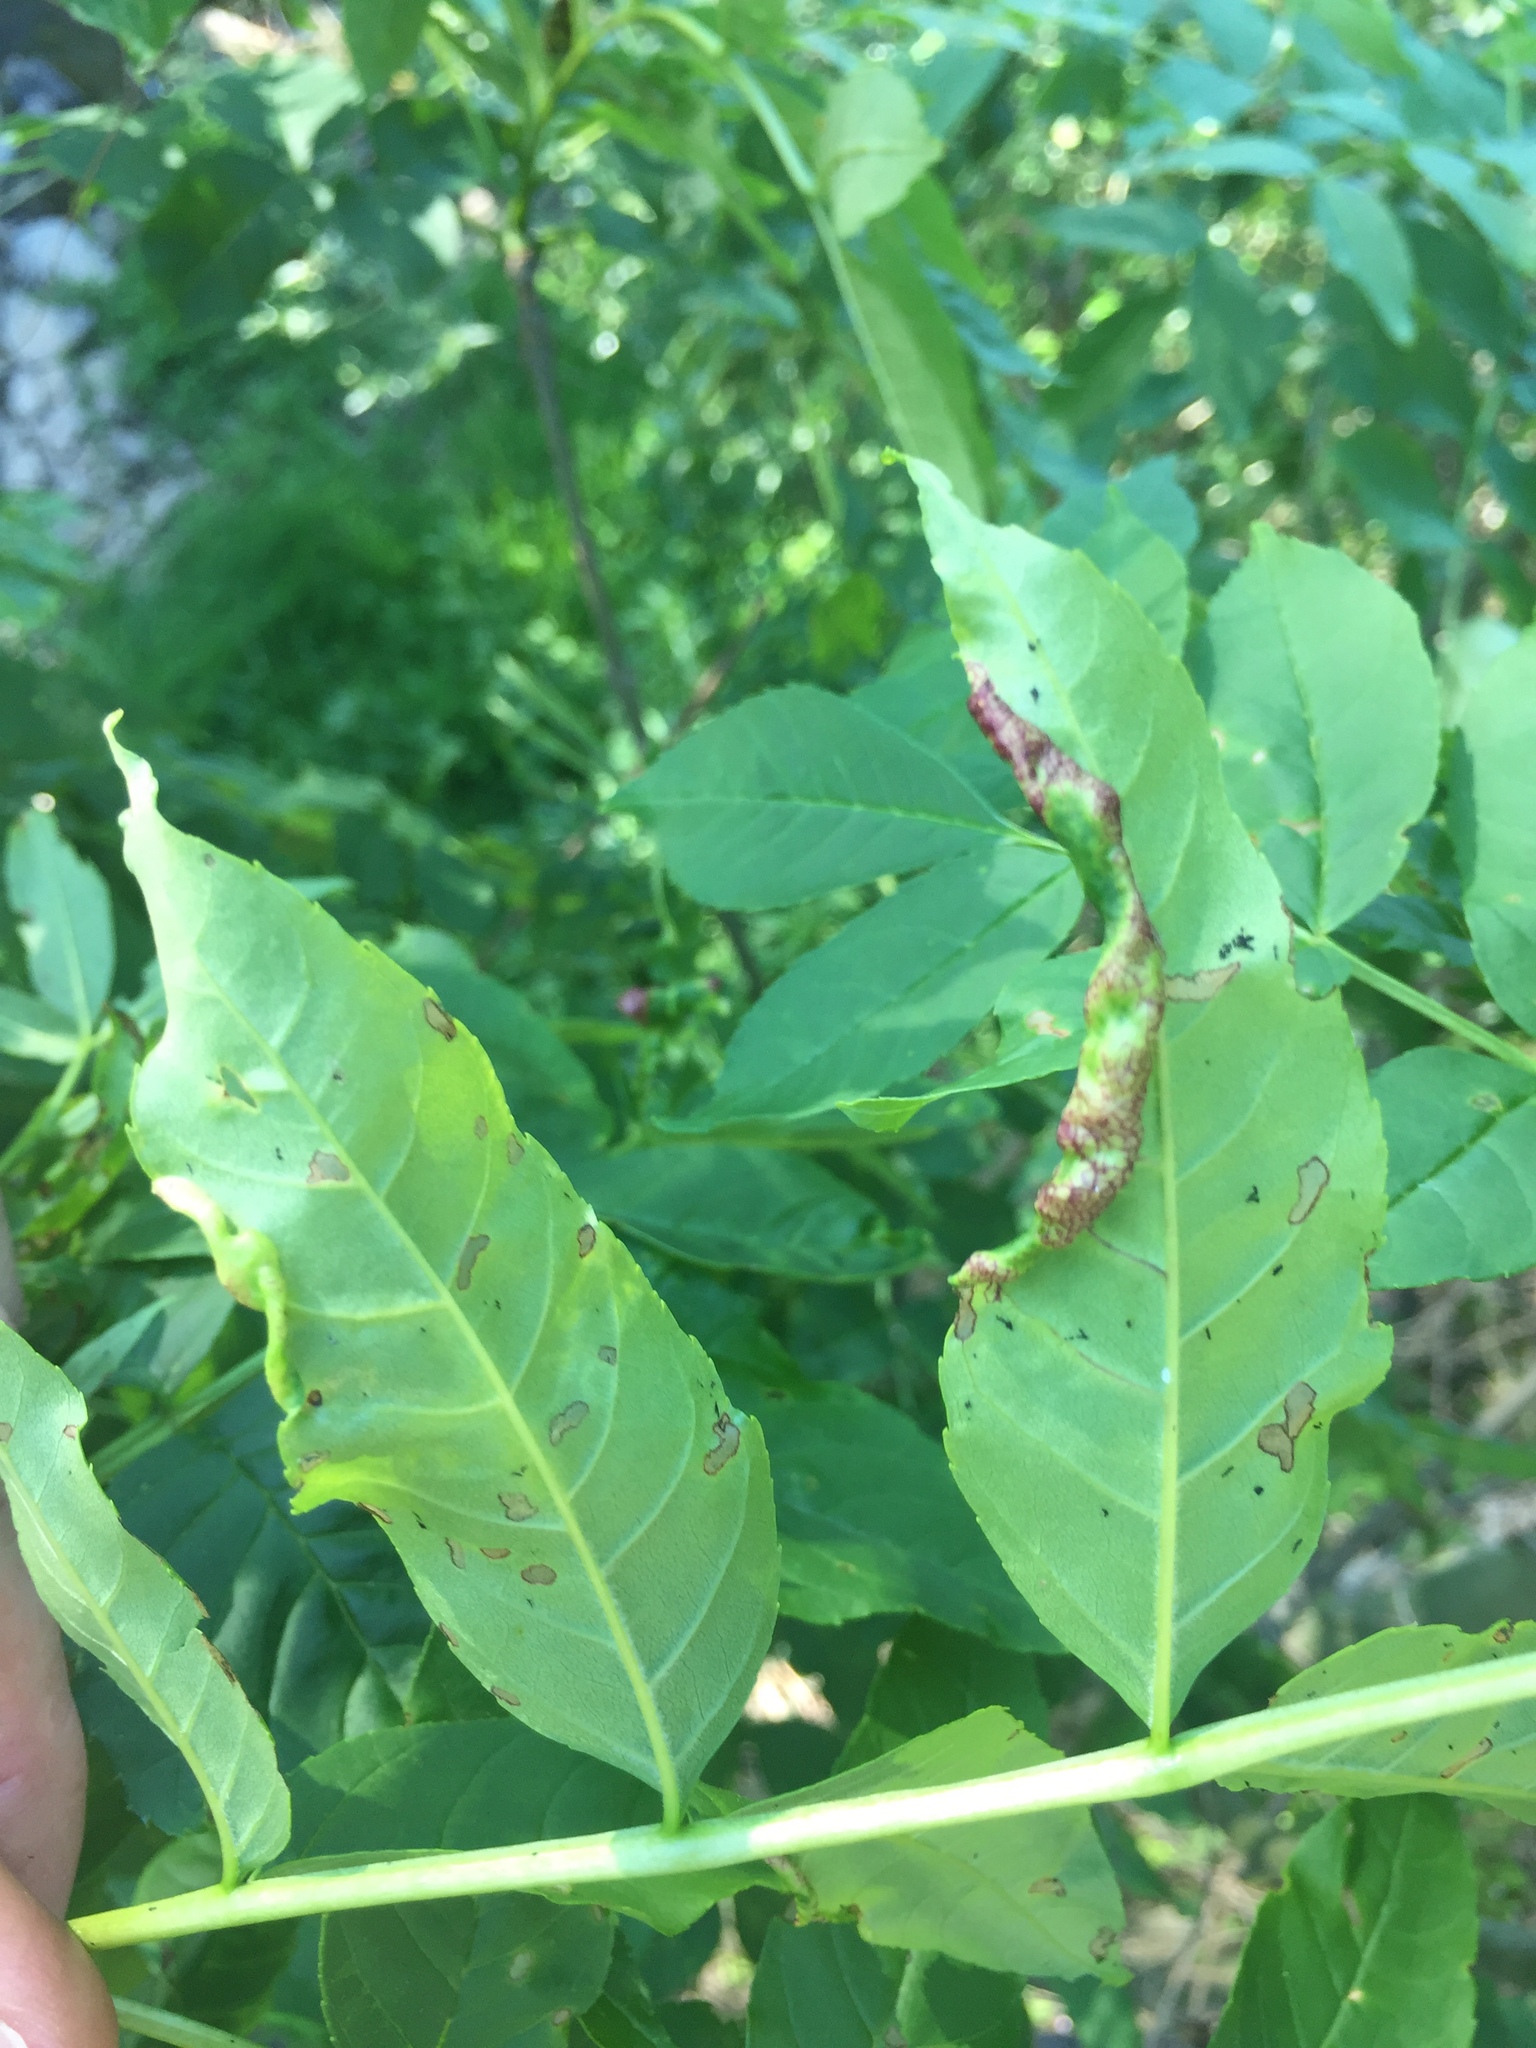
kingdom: Animalia
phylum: Arthropoda
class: Insecta
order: Hemiptera
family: Liviidae
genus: Psyllopsis
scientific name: Psyllopsis fraxini
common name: Jumping plant louse
